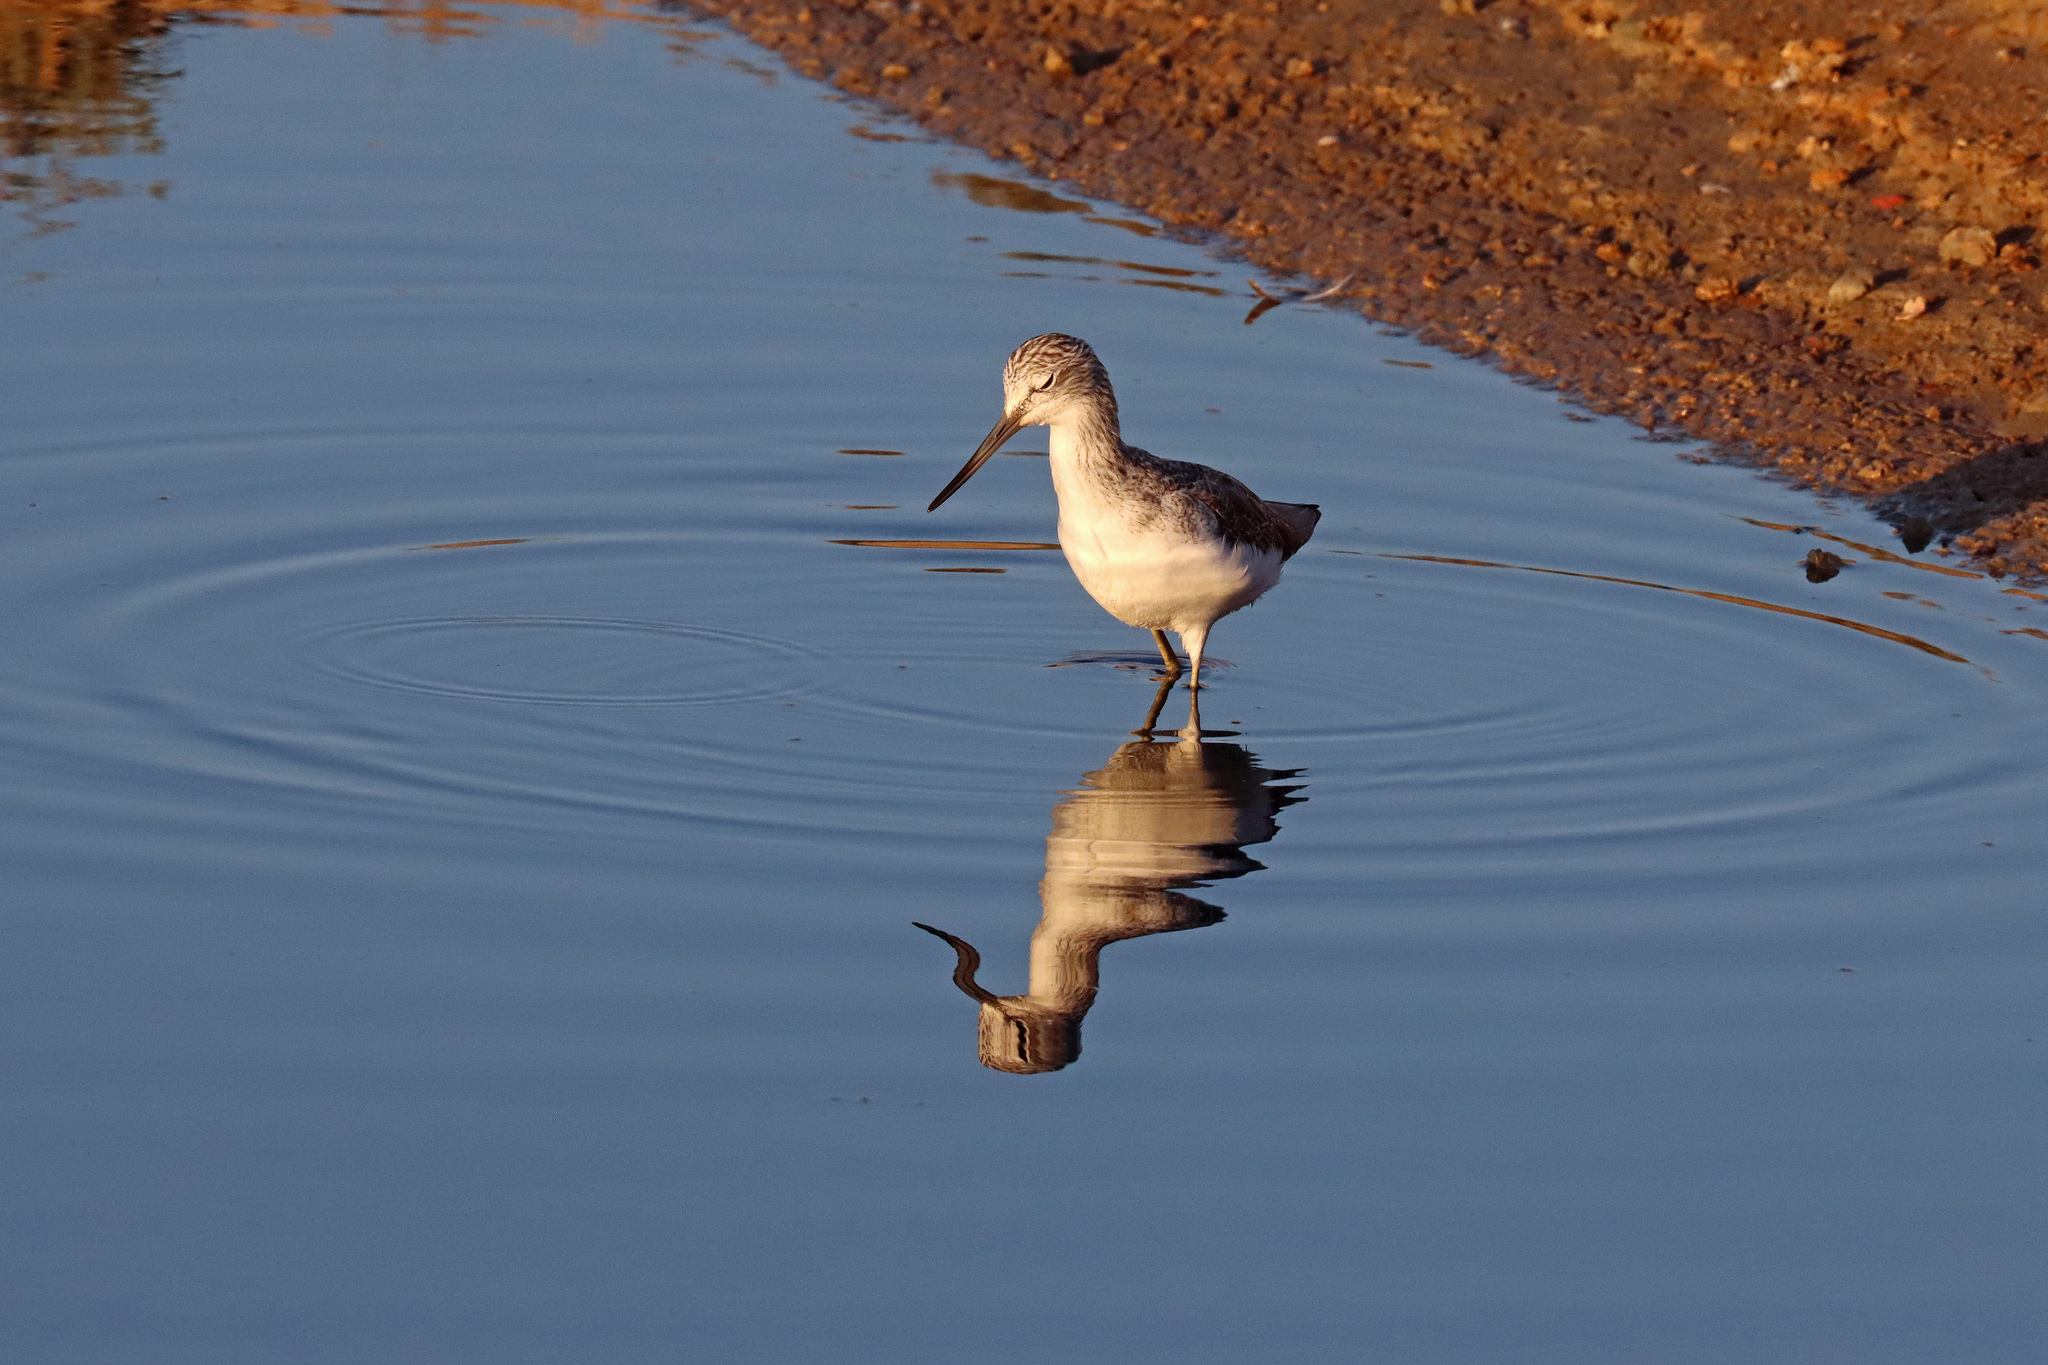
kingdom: Animalia
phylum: Chordata
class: Aves
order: Charadriiformes
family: Scolopacidae
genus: Tringa
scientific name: Tringa nebularia
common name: Common greenshank
